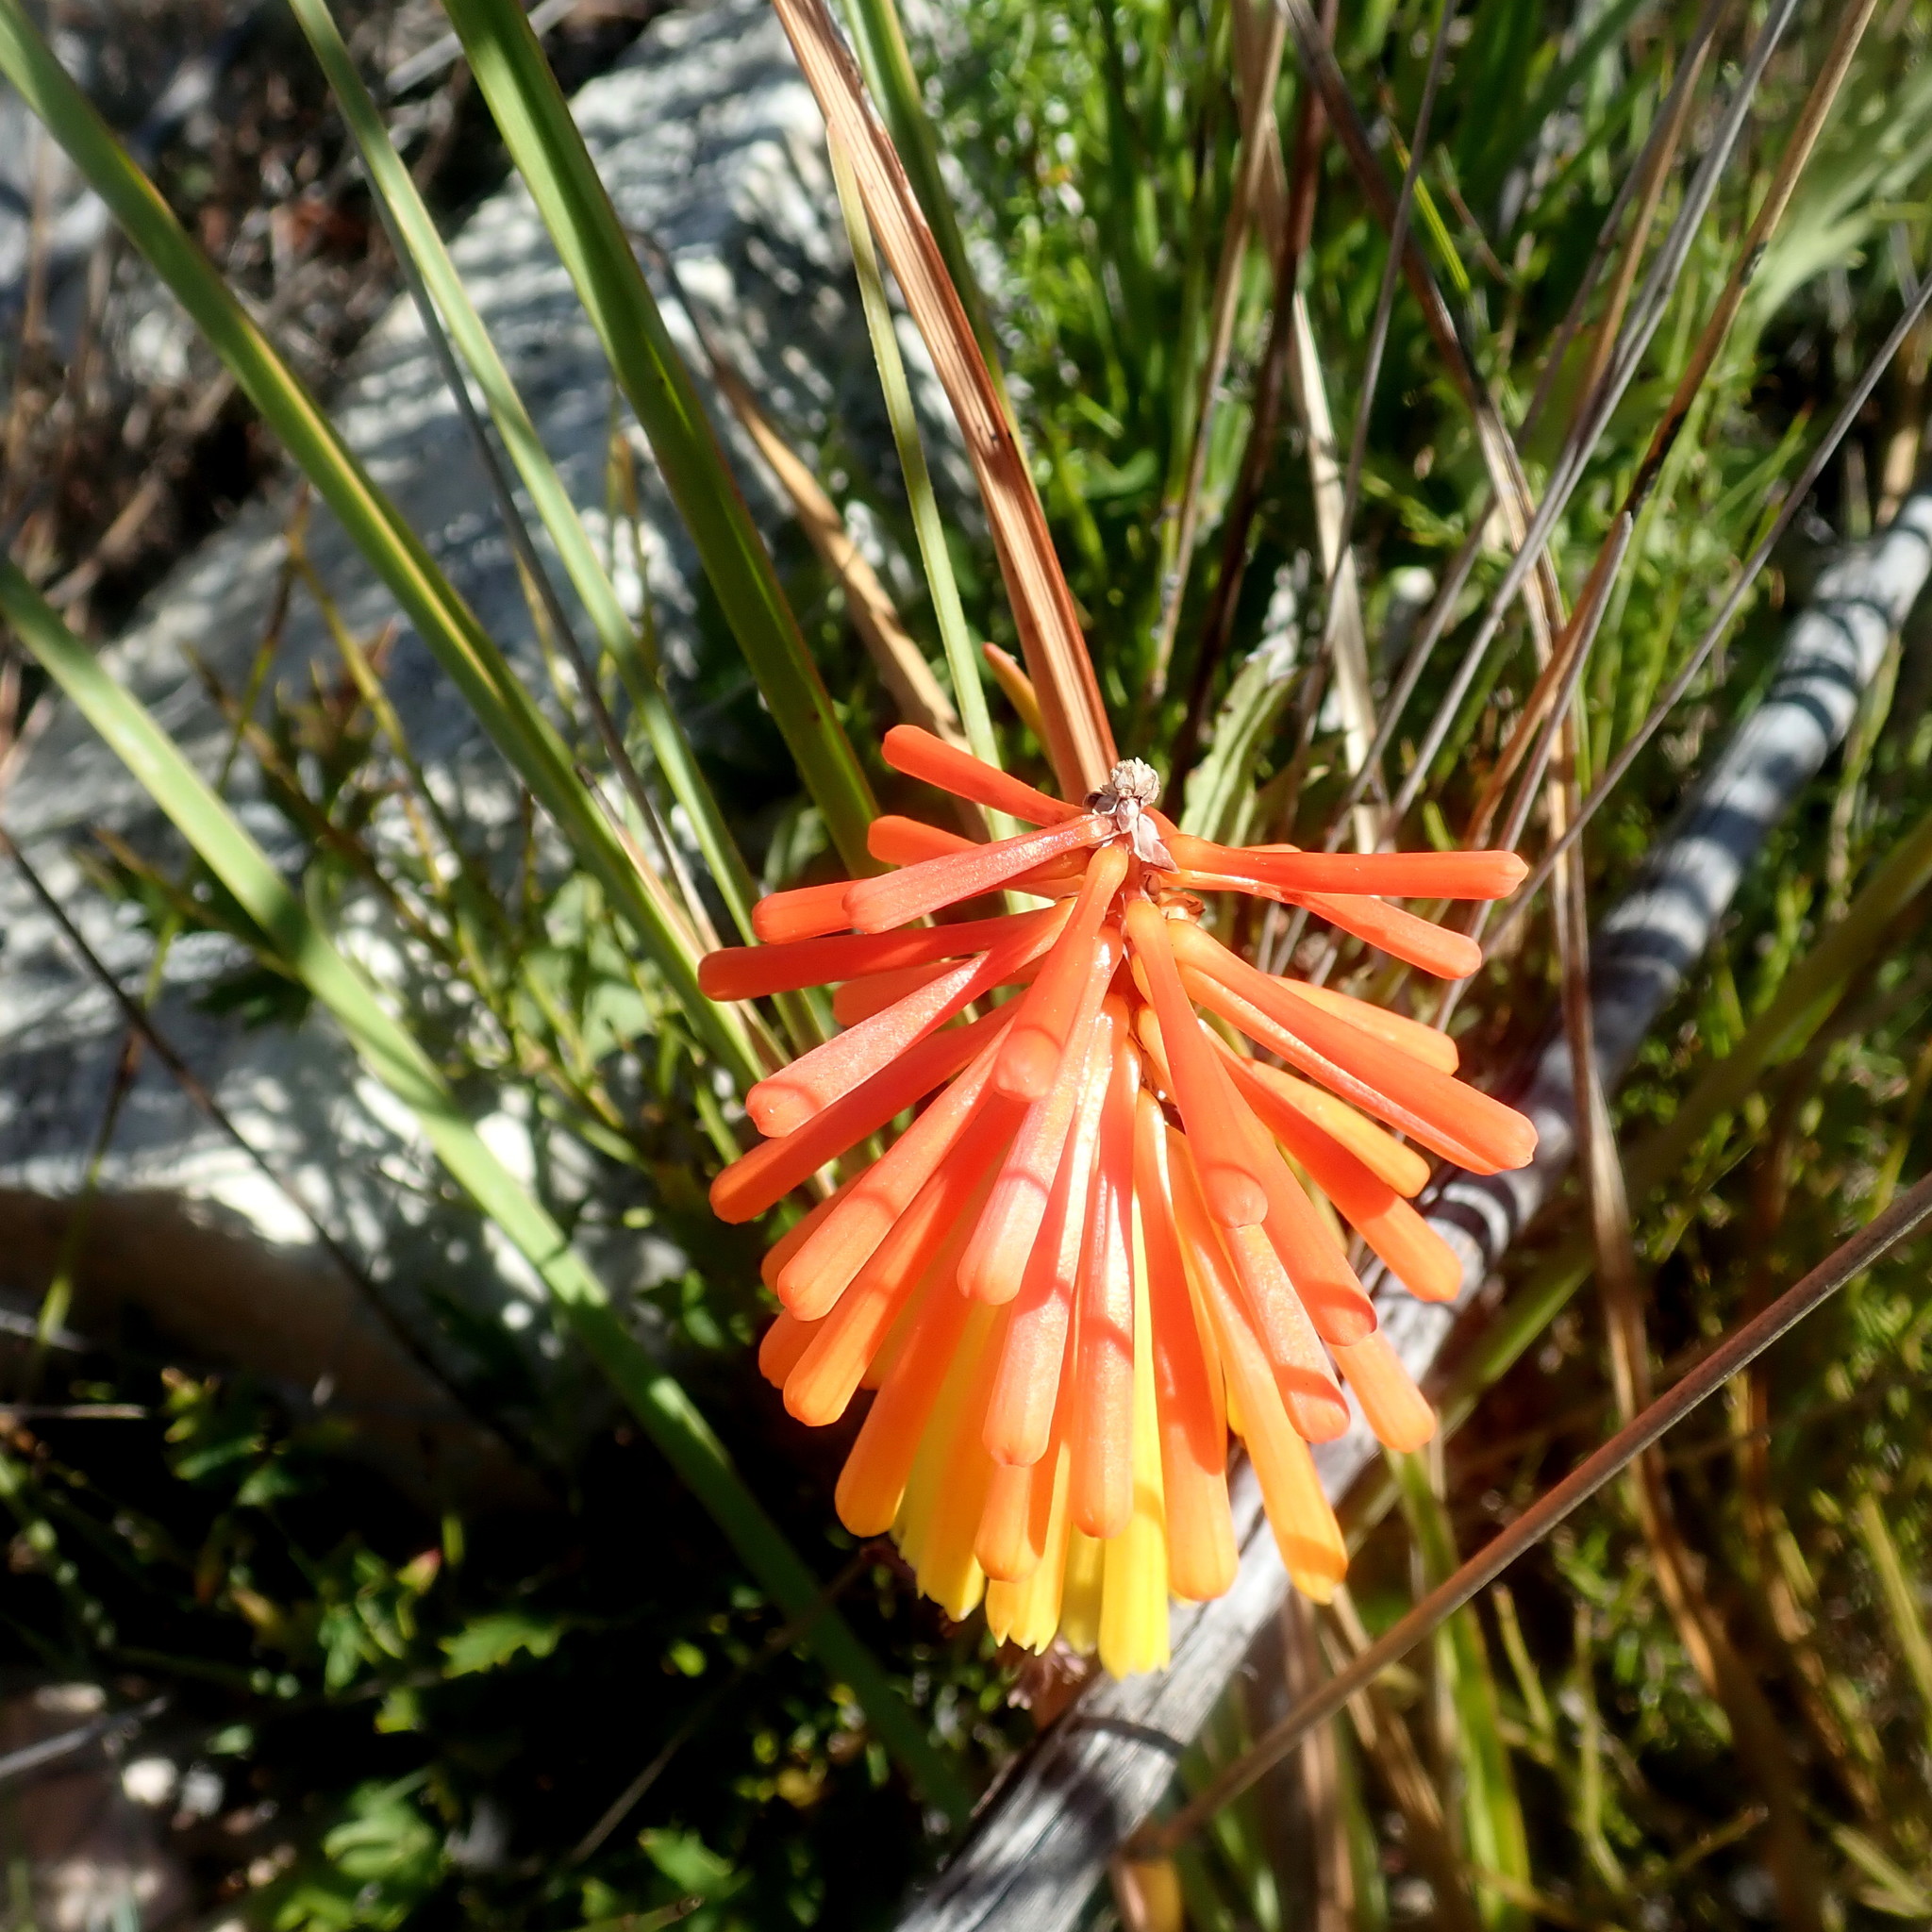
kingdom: Plantae
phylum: Tracheophyta
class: Liliopsida
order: Asparagales
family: Asphodelaceae
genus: Kniphofia
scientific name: Kniphofia uvaria
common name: Red-hot-poker
